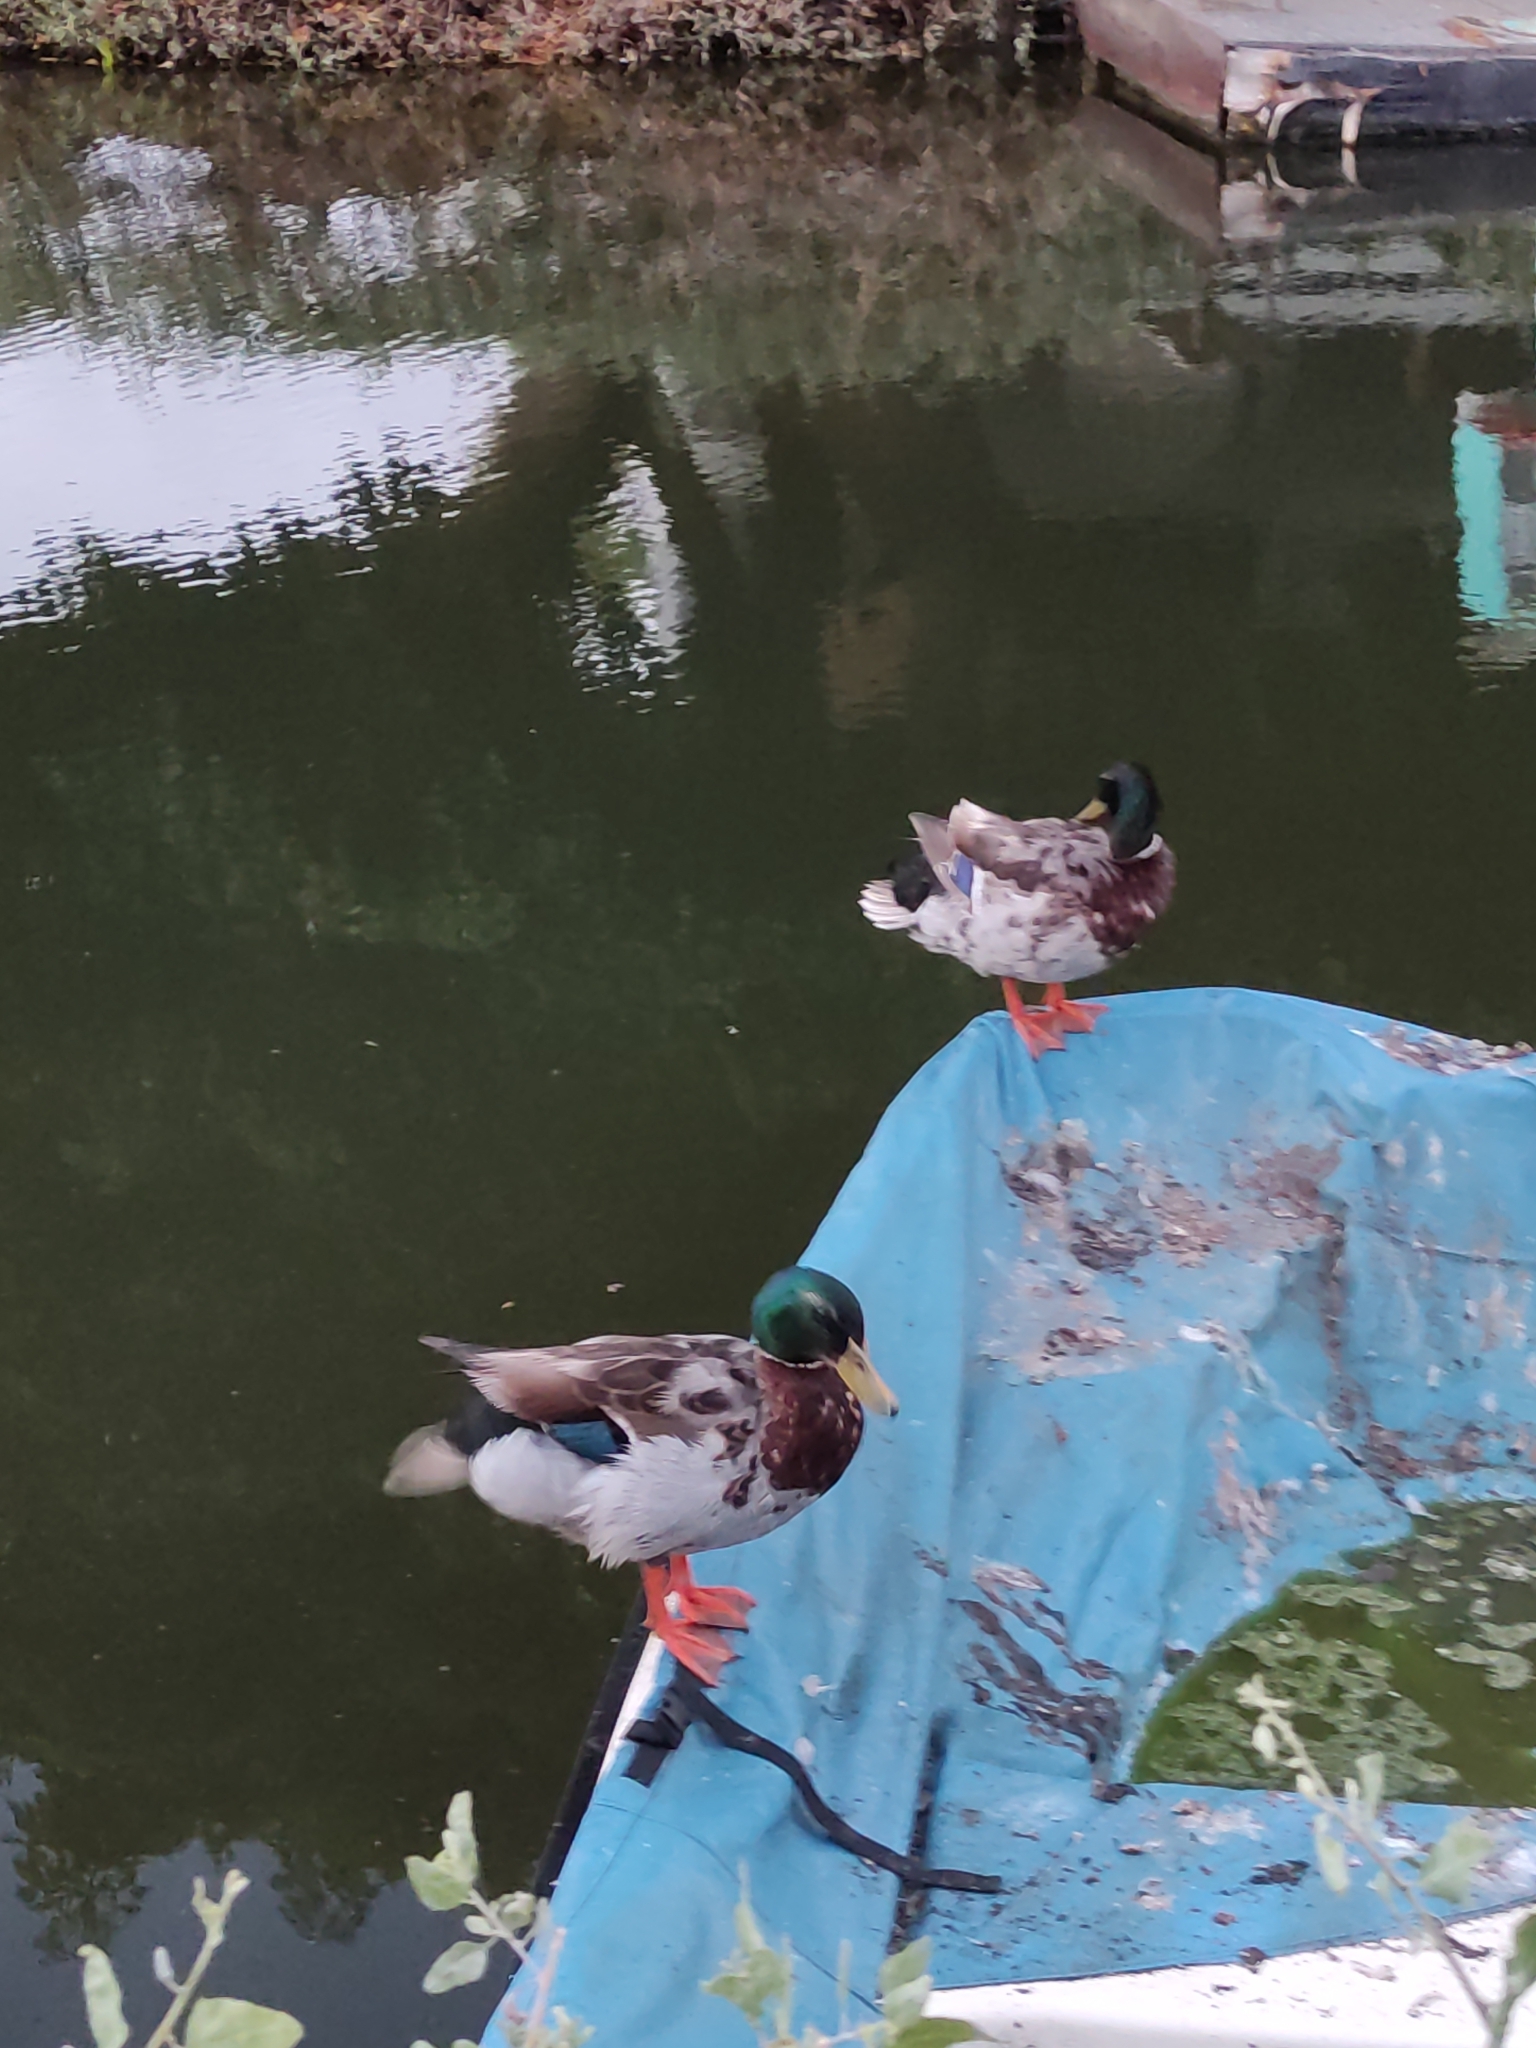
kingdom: Animalia
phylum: Chordata
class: Aves
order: Anseriformes
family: Anatidae
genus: Anas
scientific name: Anas platyrhynchos
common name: Mallard
